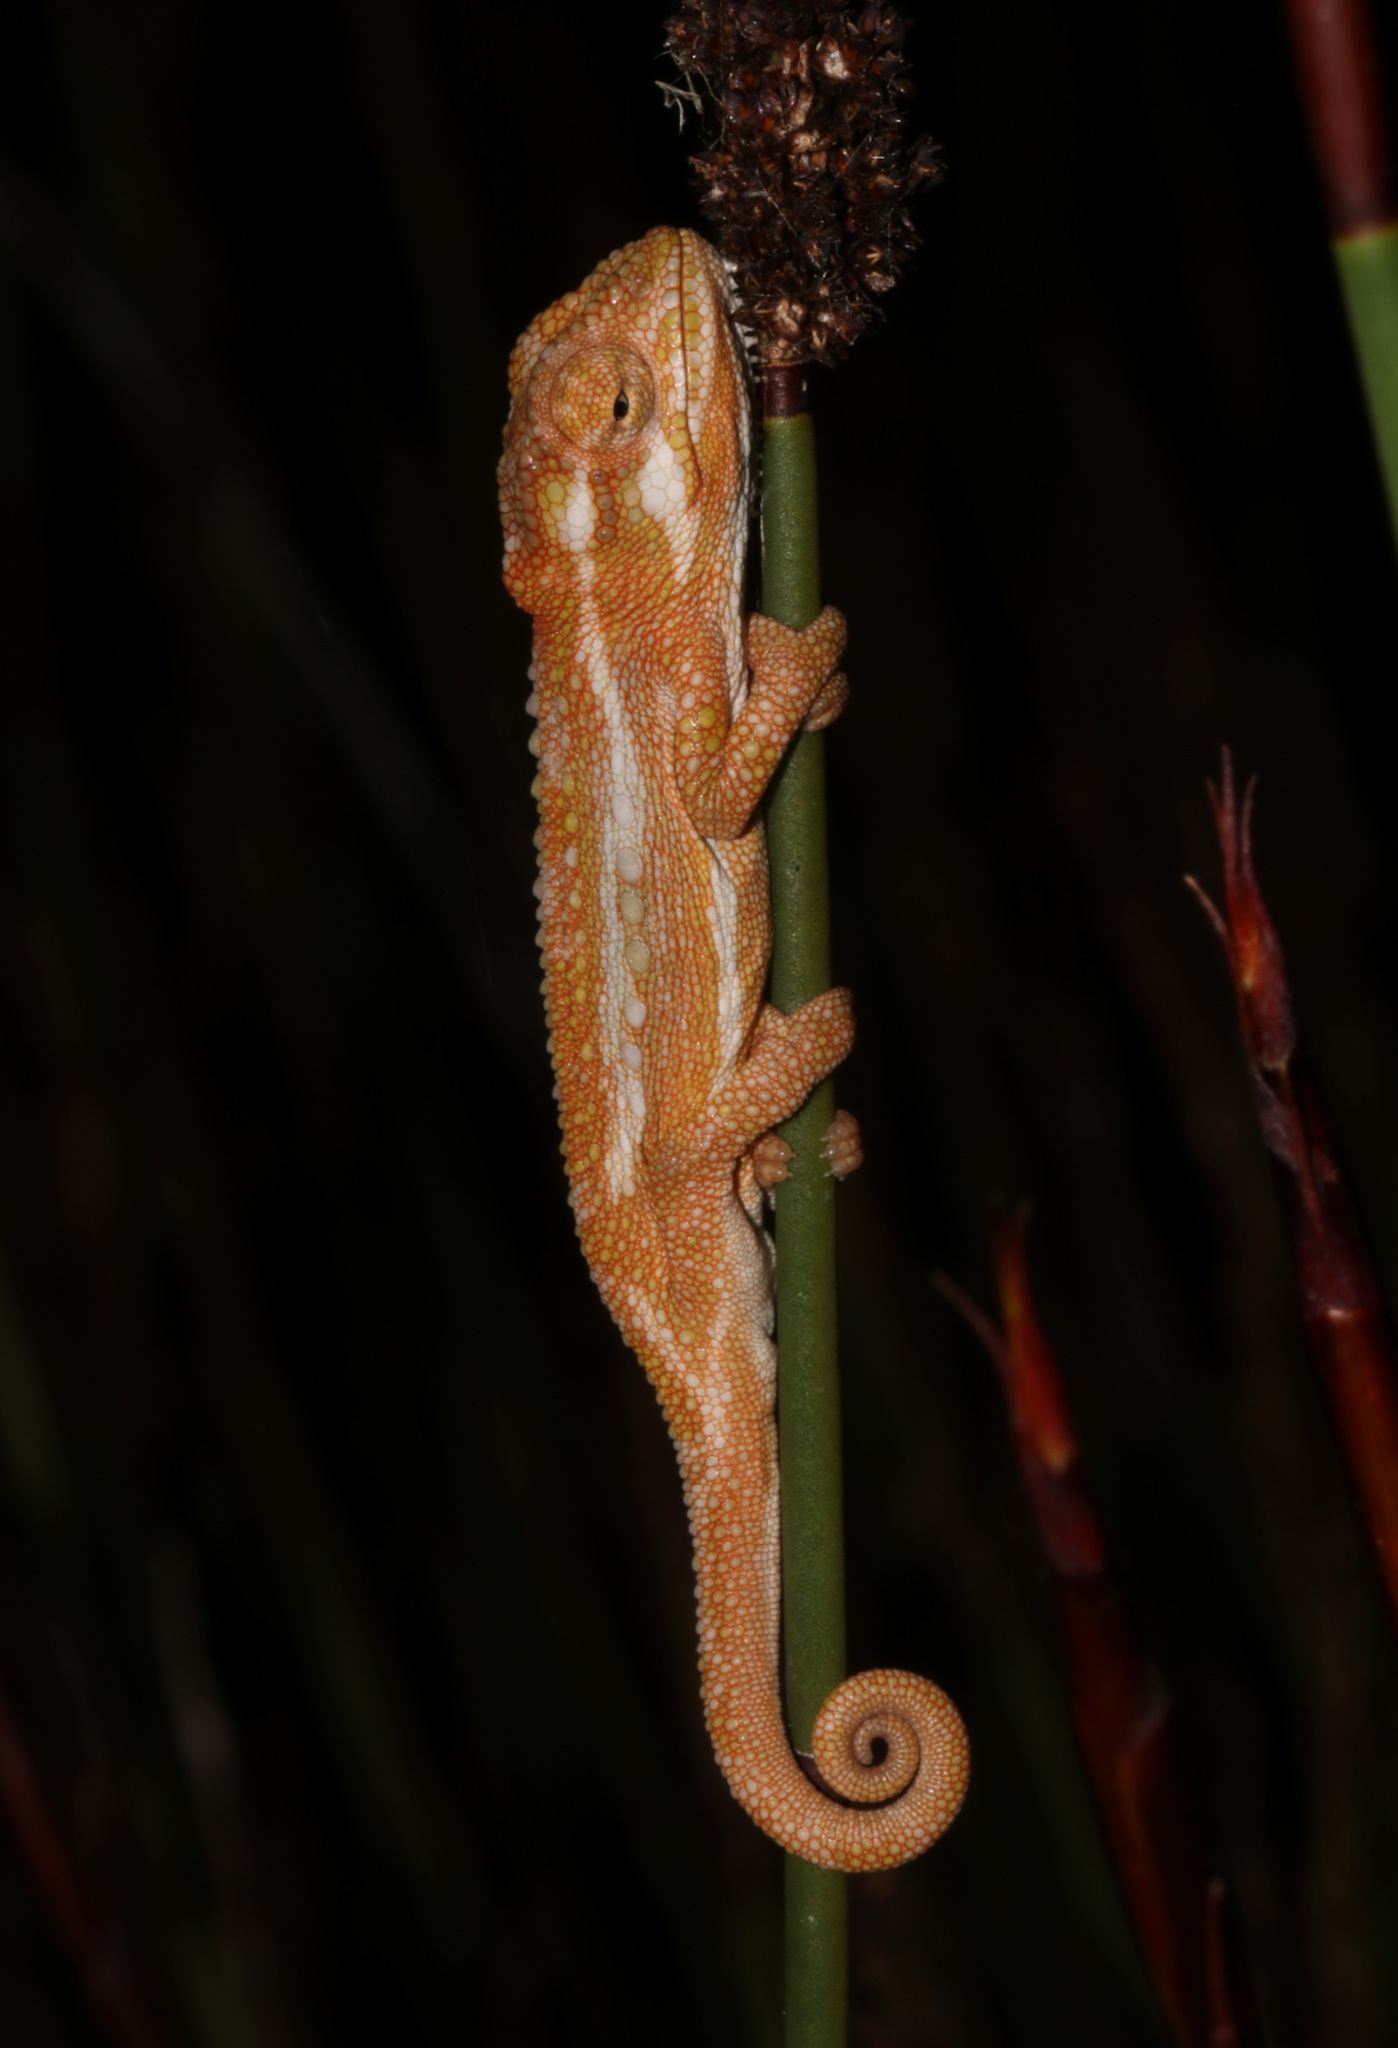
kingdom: Animalia
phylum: Chordata
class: Squamata
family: Chamaeleonidae
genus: Bradypodion
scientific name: Bradypodion pumilum
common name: Cape dwarf chameleon
